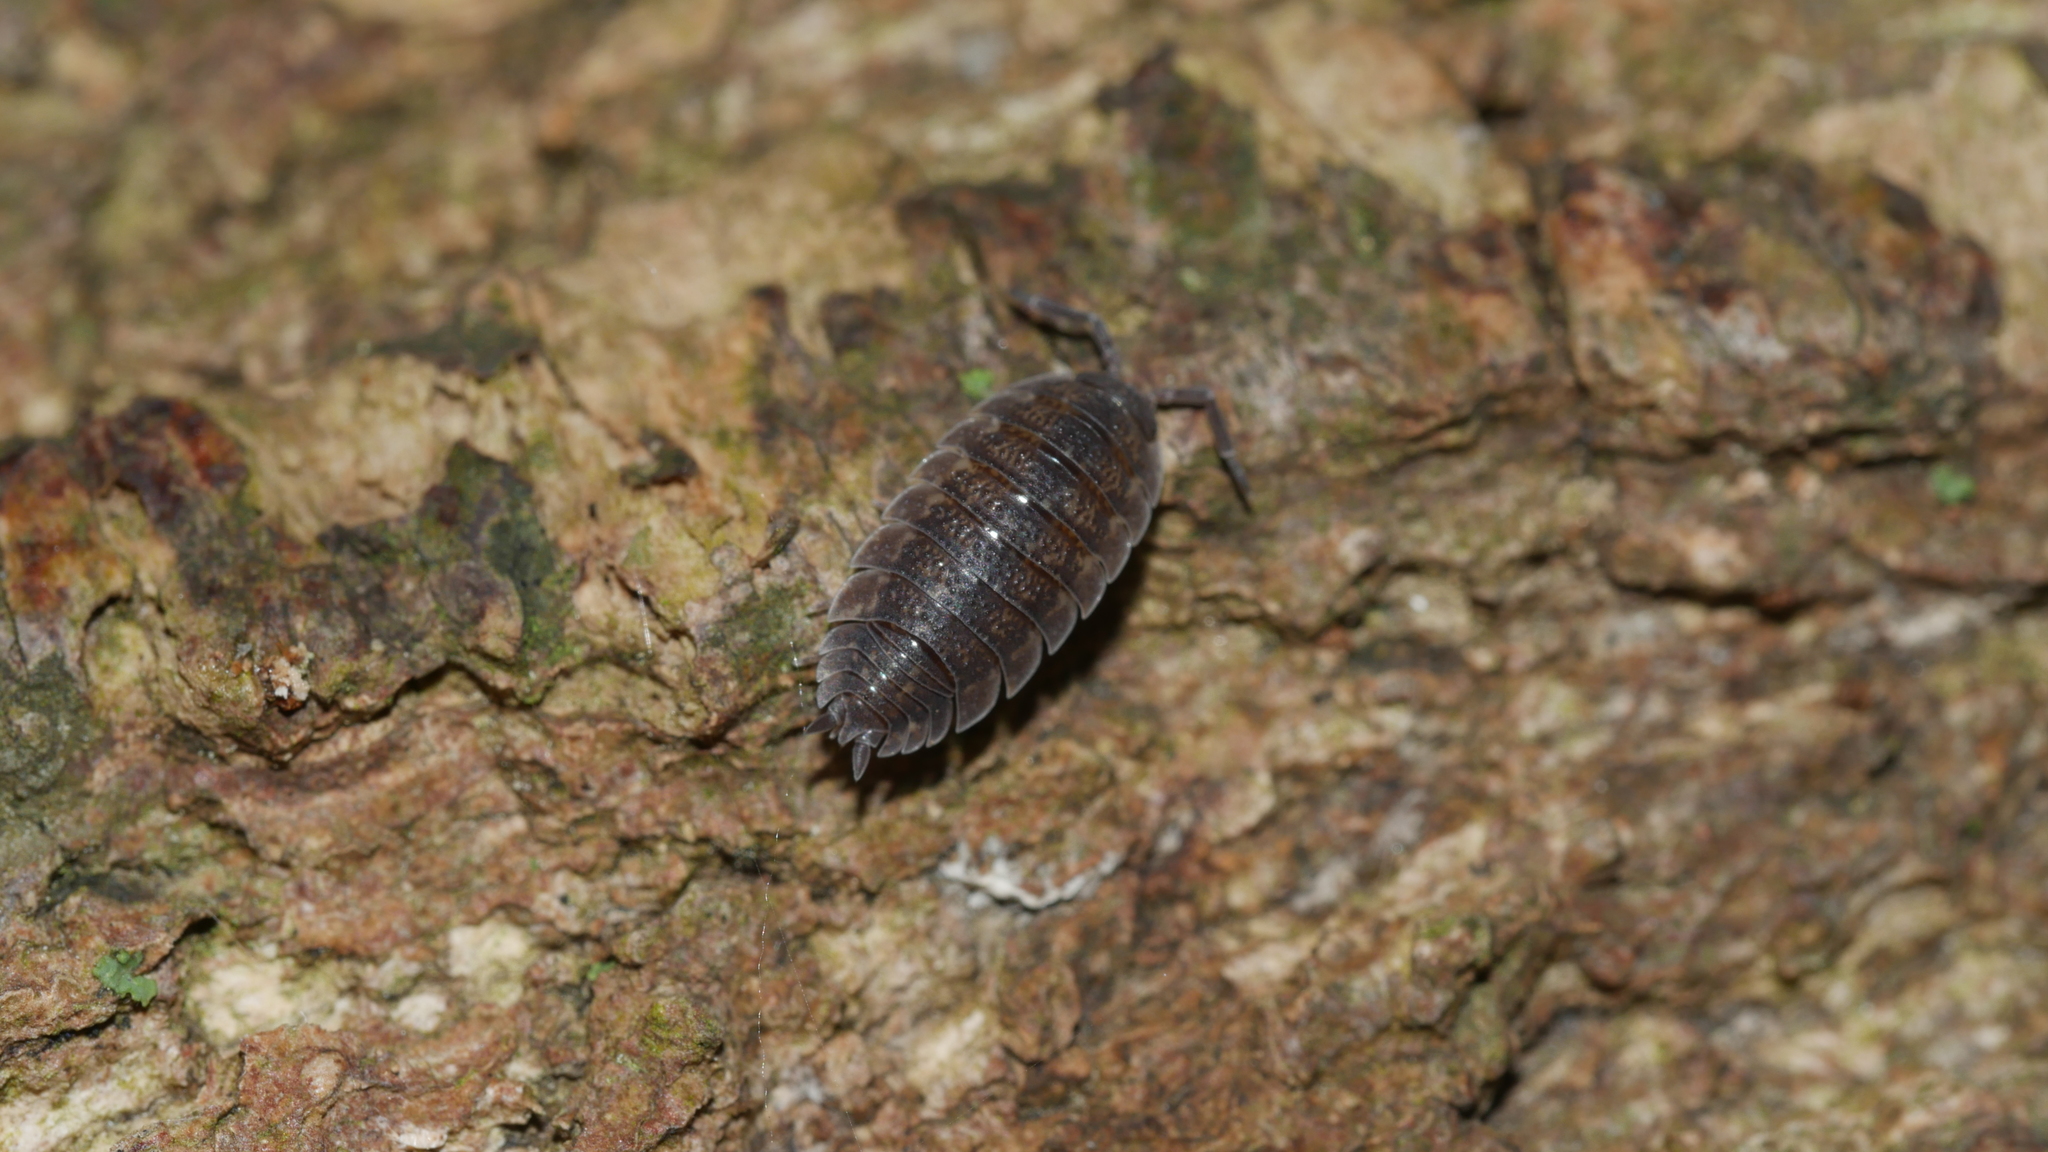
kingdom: Animalia
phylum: Arthropoda
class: Malacostraca
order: Isopoda
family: Porcellionidae
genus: Porcellio
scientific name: Porcellio scaber
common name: Common rough woodlouse
